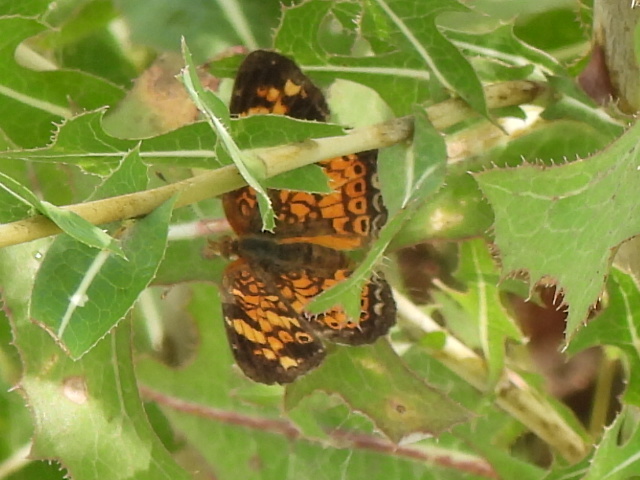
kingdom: Animalia
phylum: Arthropoda
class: Insecta
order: Lepidoptera
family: Nymphalidae
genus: Phyciodes
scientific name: Phyciodes tharos
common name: Pearl crescent
